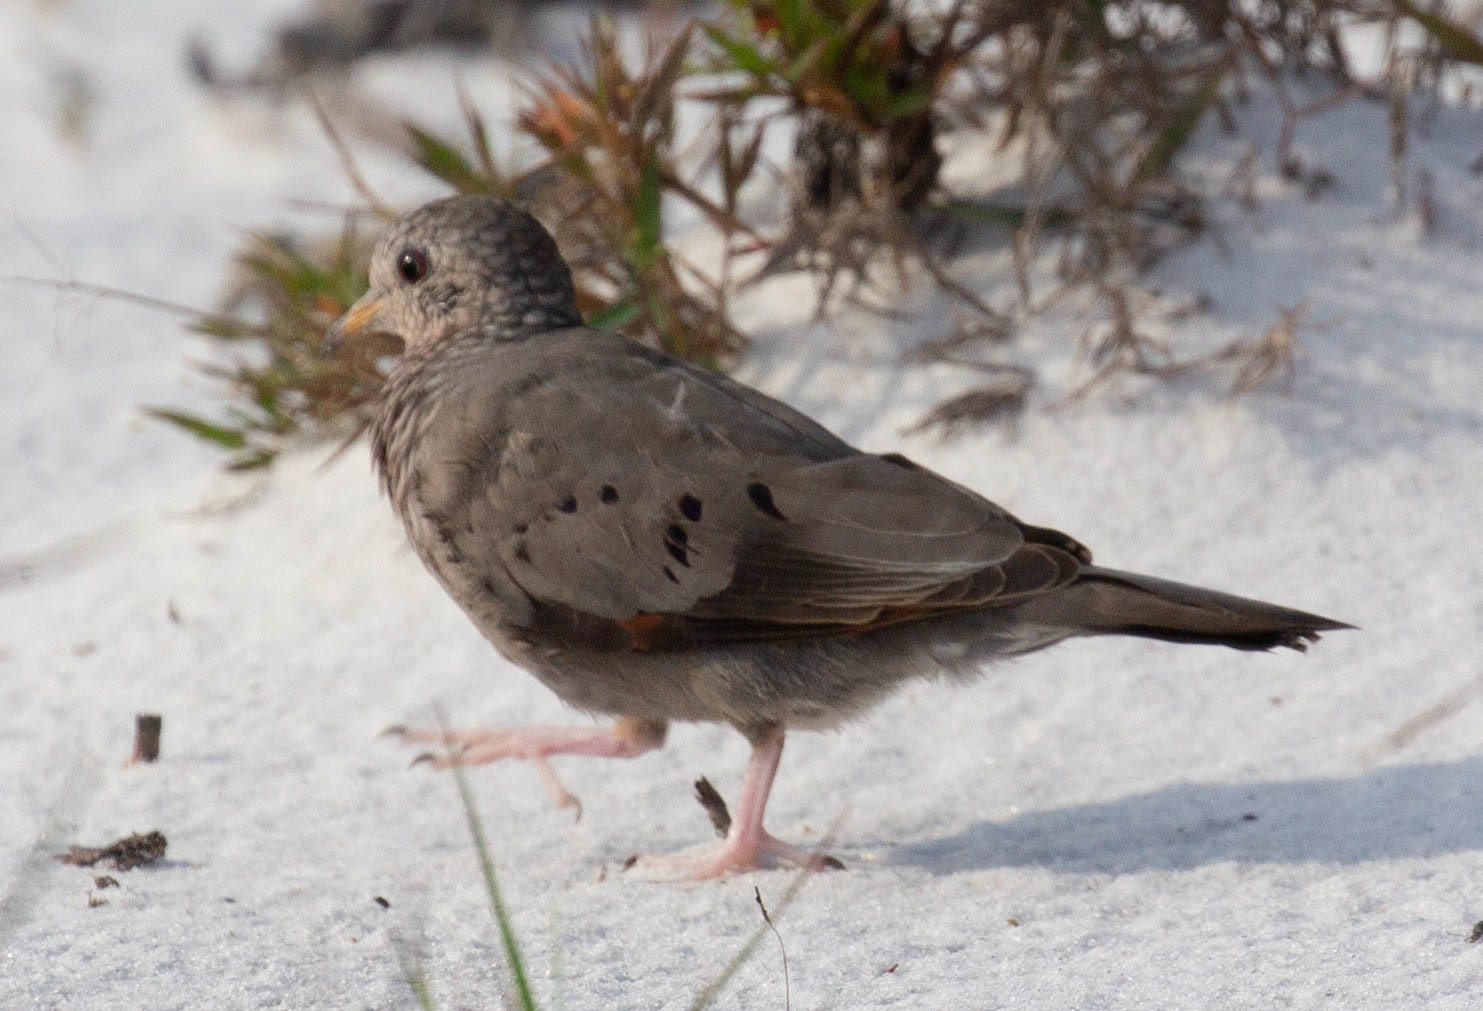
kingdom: Animalia
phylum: Chordata
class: Aves
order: Columbiformes
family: Columbidae
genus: Columbina
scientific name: Columbina passerina
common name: Common ground-dove
